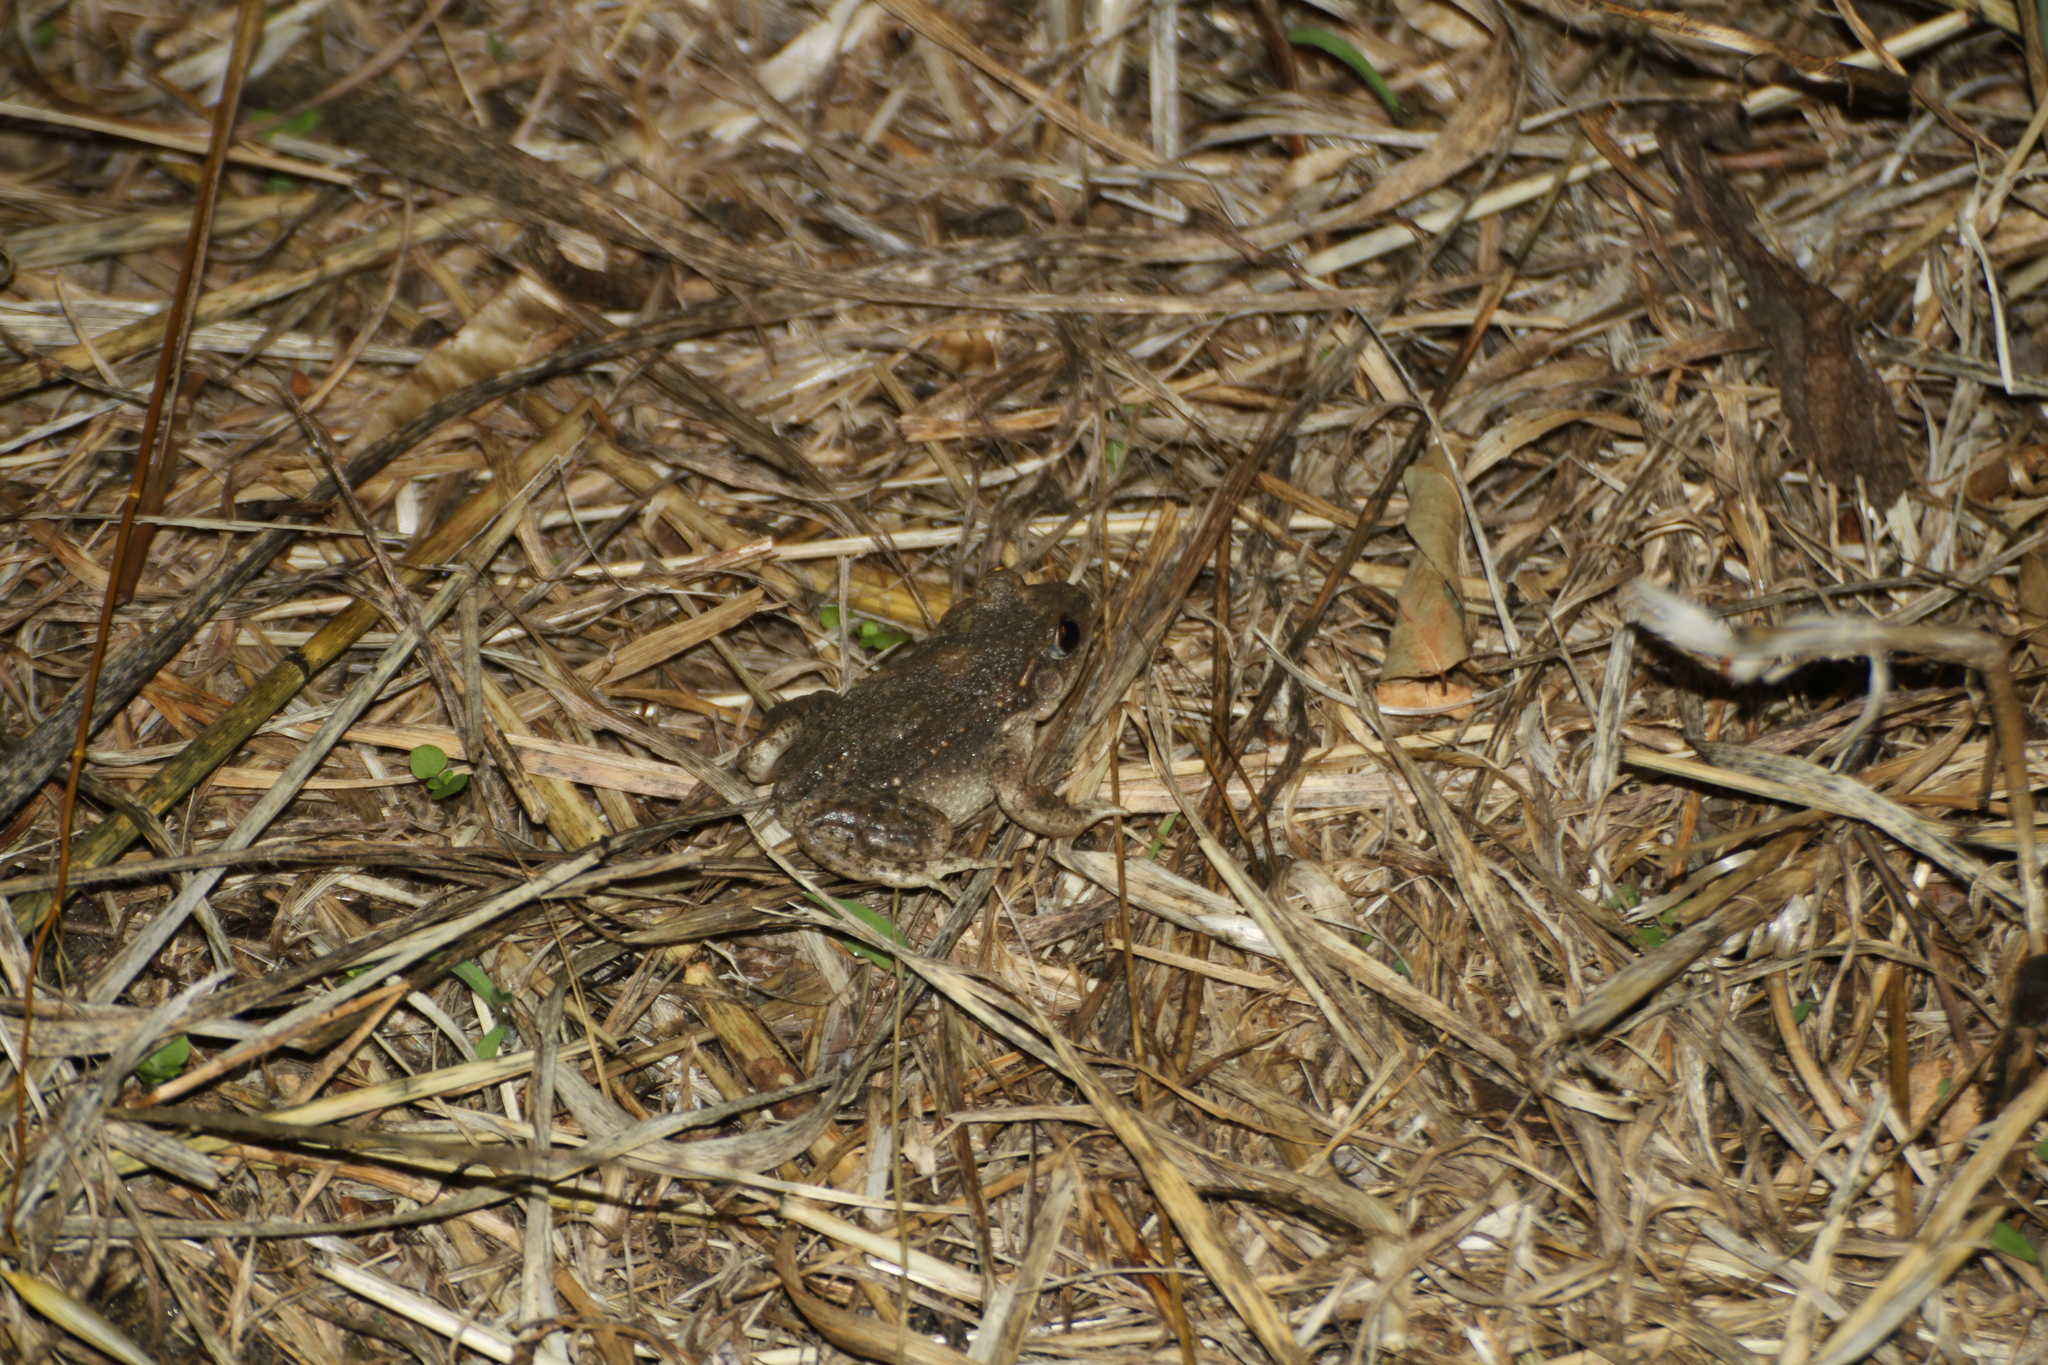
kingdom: Animalia
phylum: Chordata
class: Amphibia
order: Anura
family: Alytidae
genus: Alytes
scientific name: Alytes obstetricans
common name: Midwife toad
